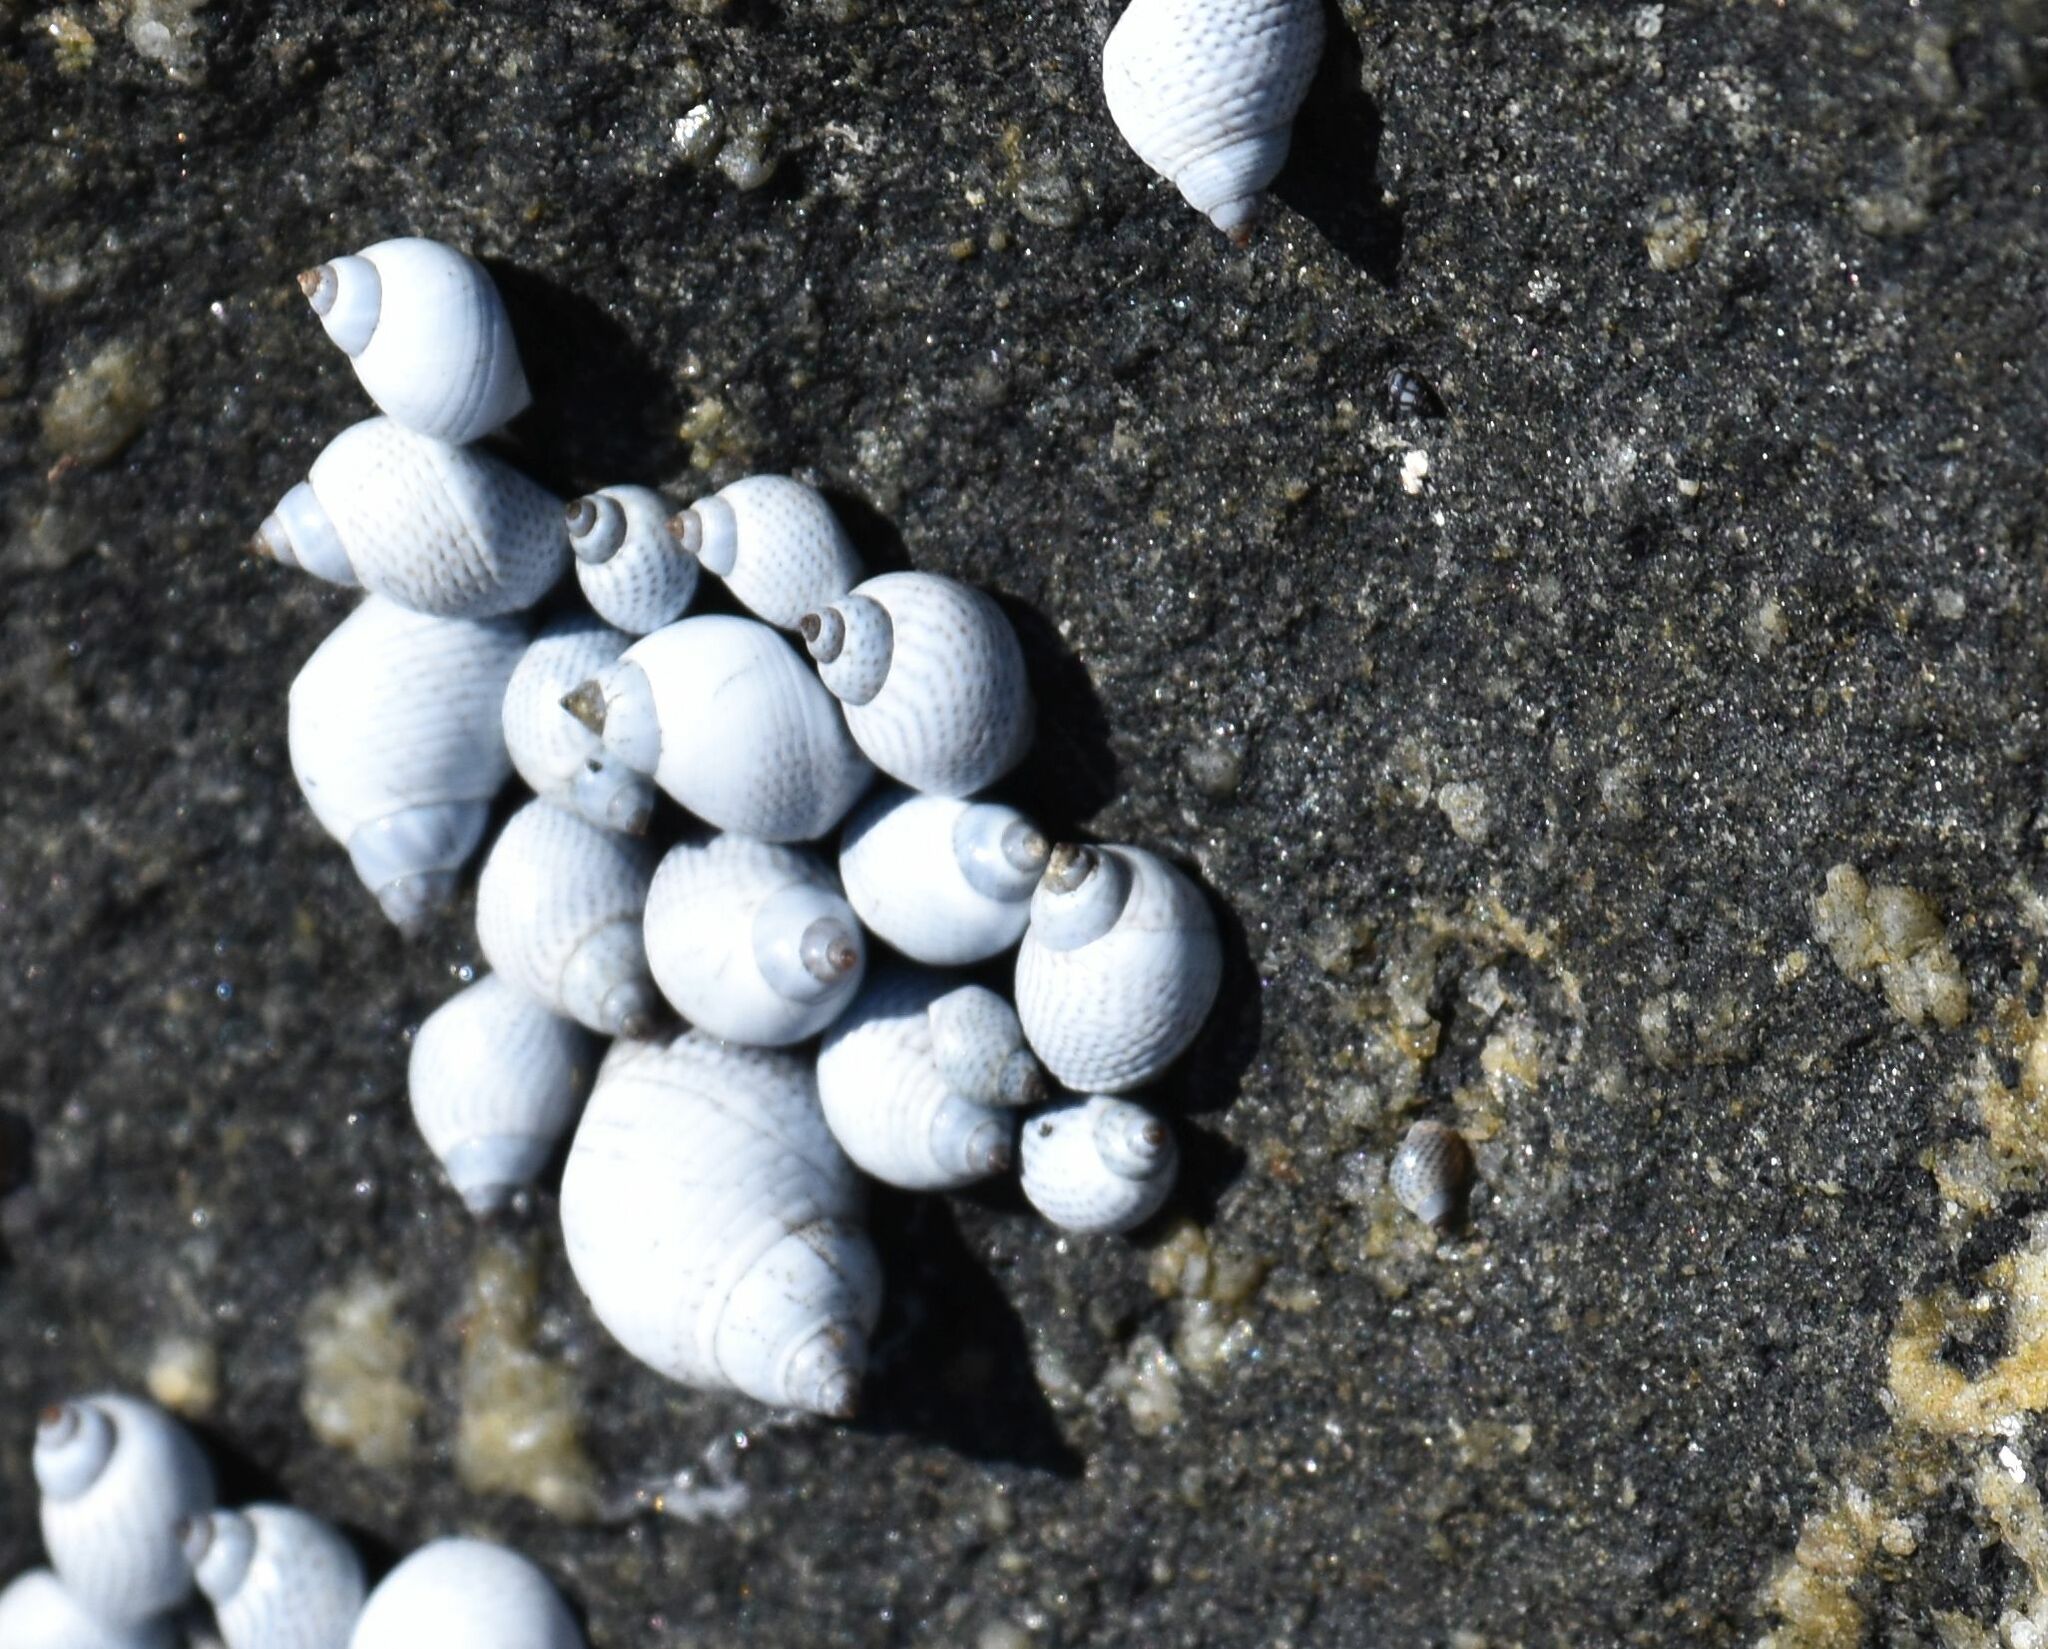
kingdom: Animalia
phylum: Mollusca
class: Gastropoda
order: Littorinimorpha
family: Littorinidae
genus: Echinolittorina
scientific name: Echinolittorina modesta
